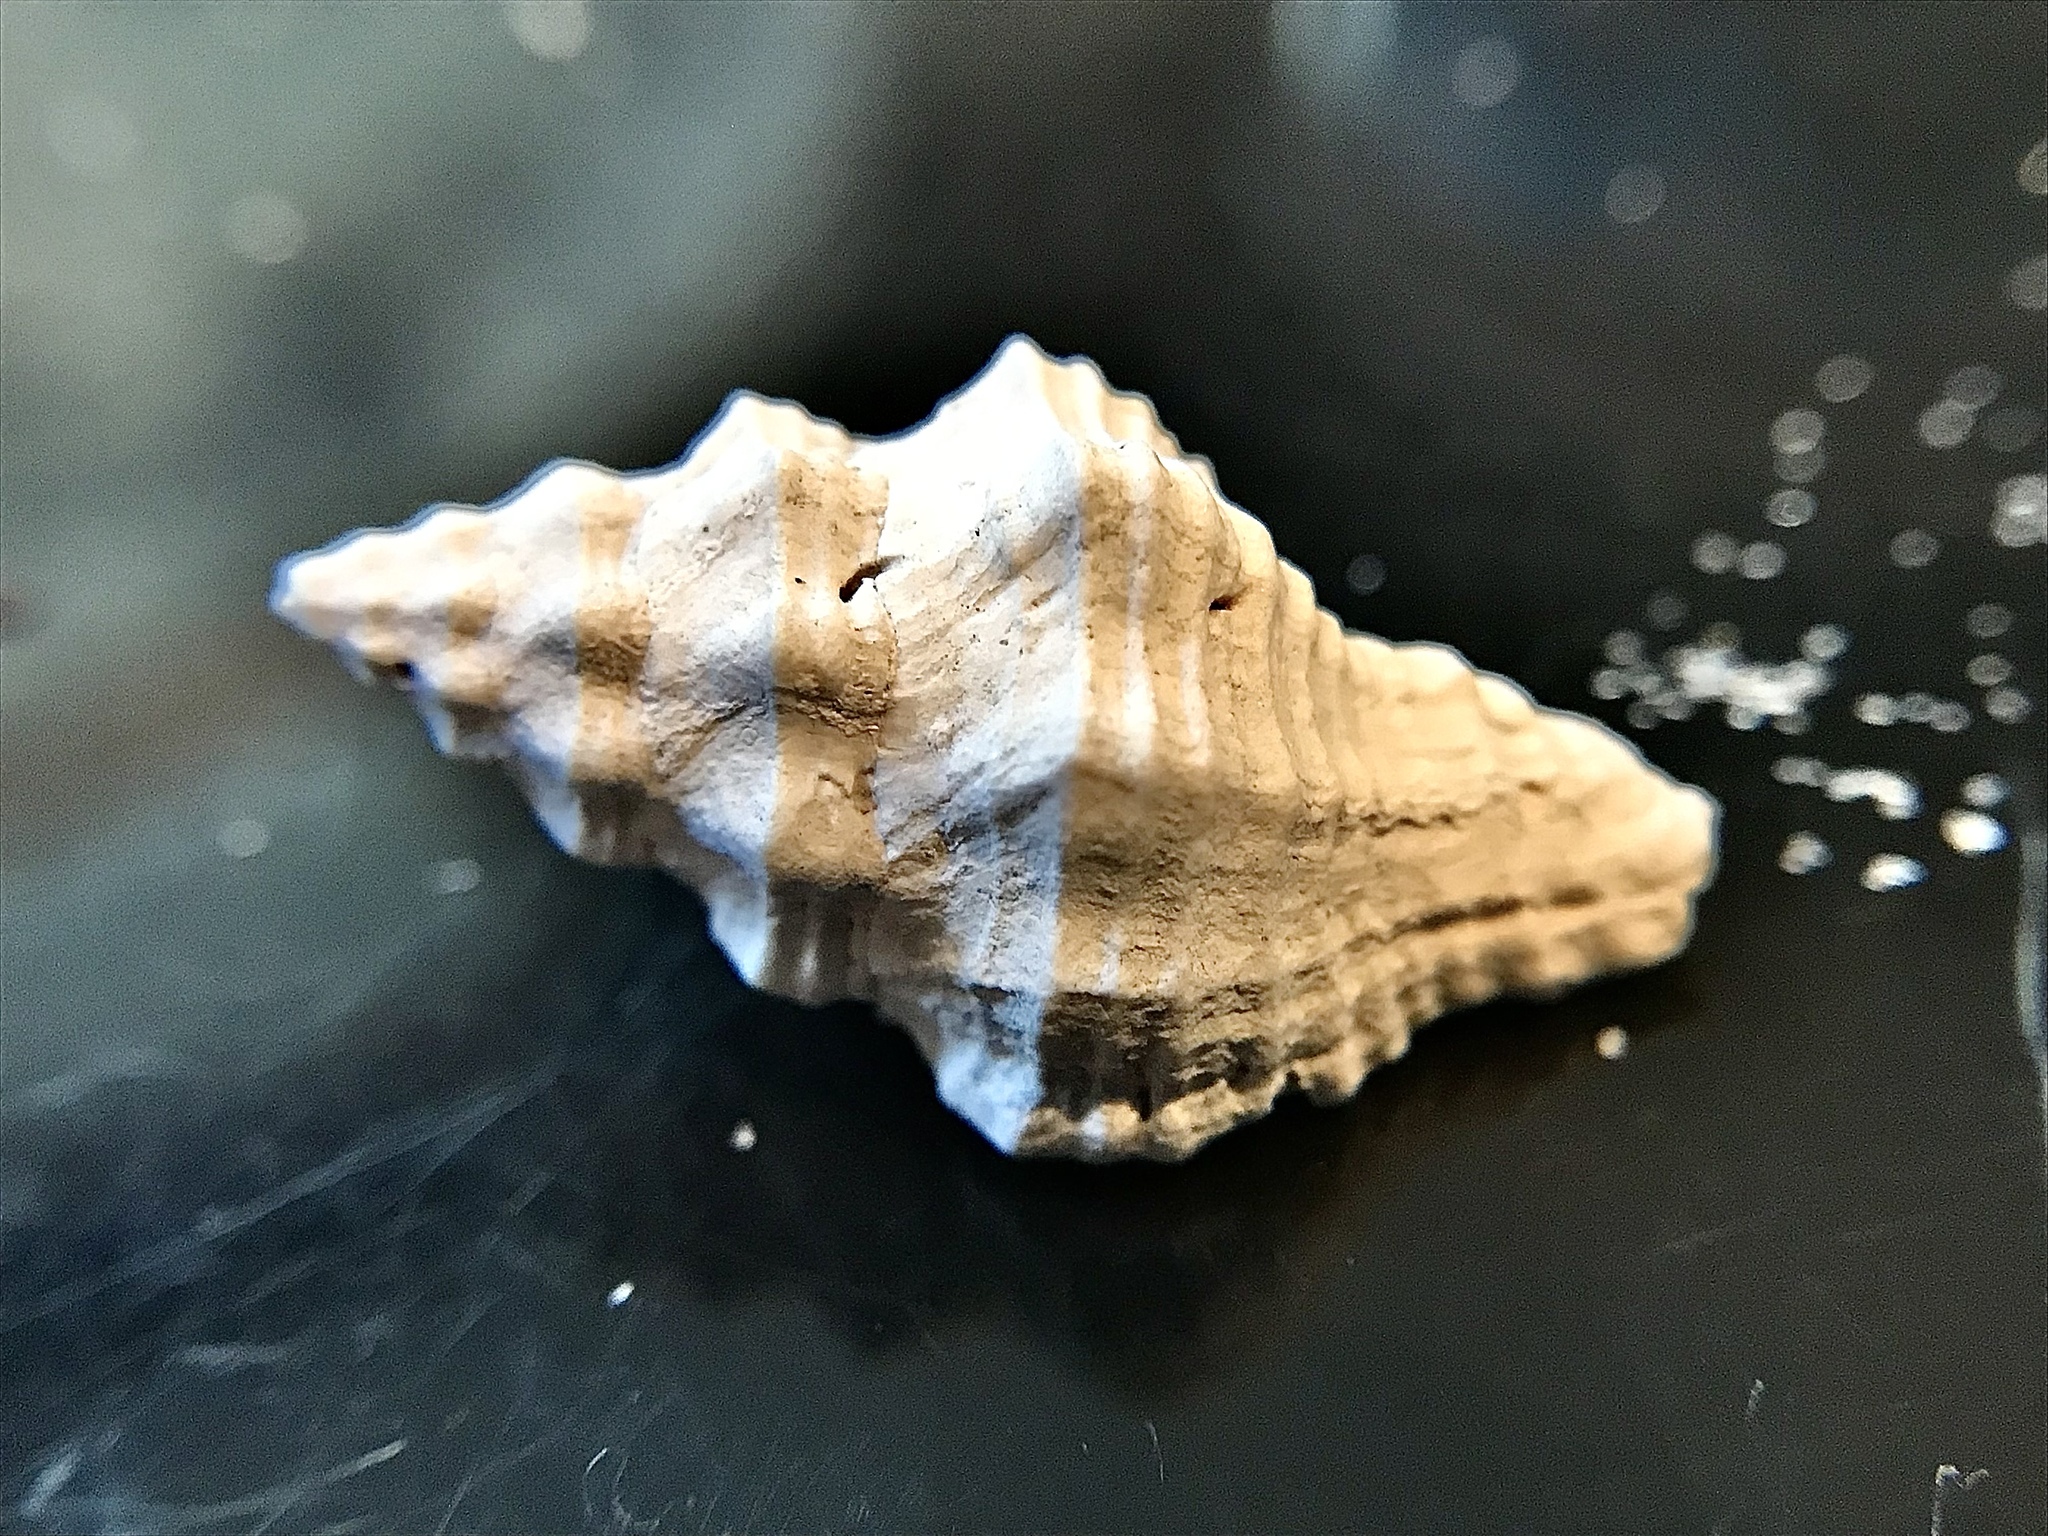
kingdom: Animalia
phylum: Mollusca
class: Gastropoda
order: Neogastropoda
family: Muricidae
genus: Calotrophon
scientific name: Calotrophon ostrearum
